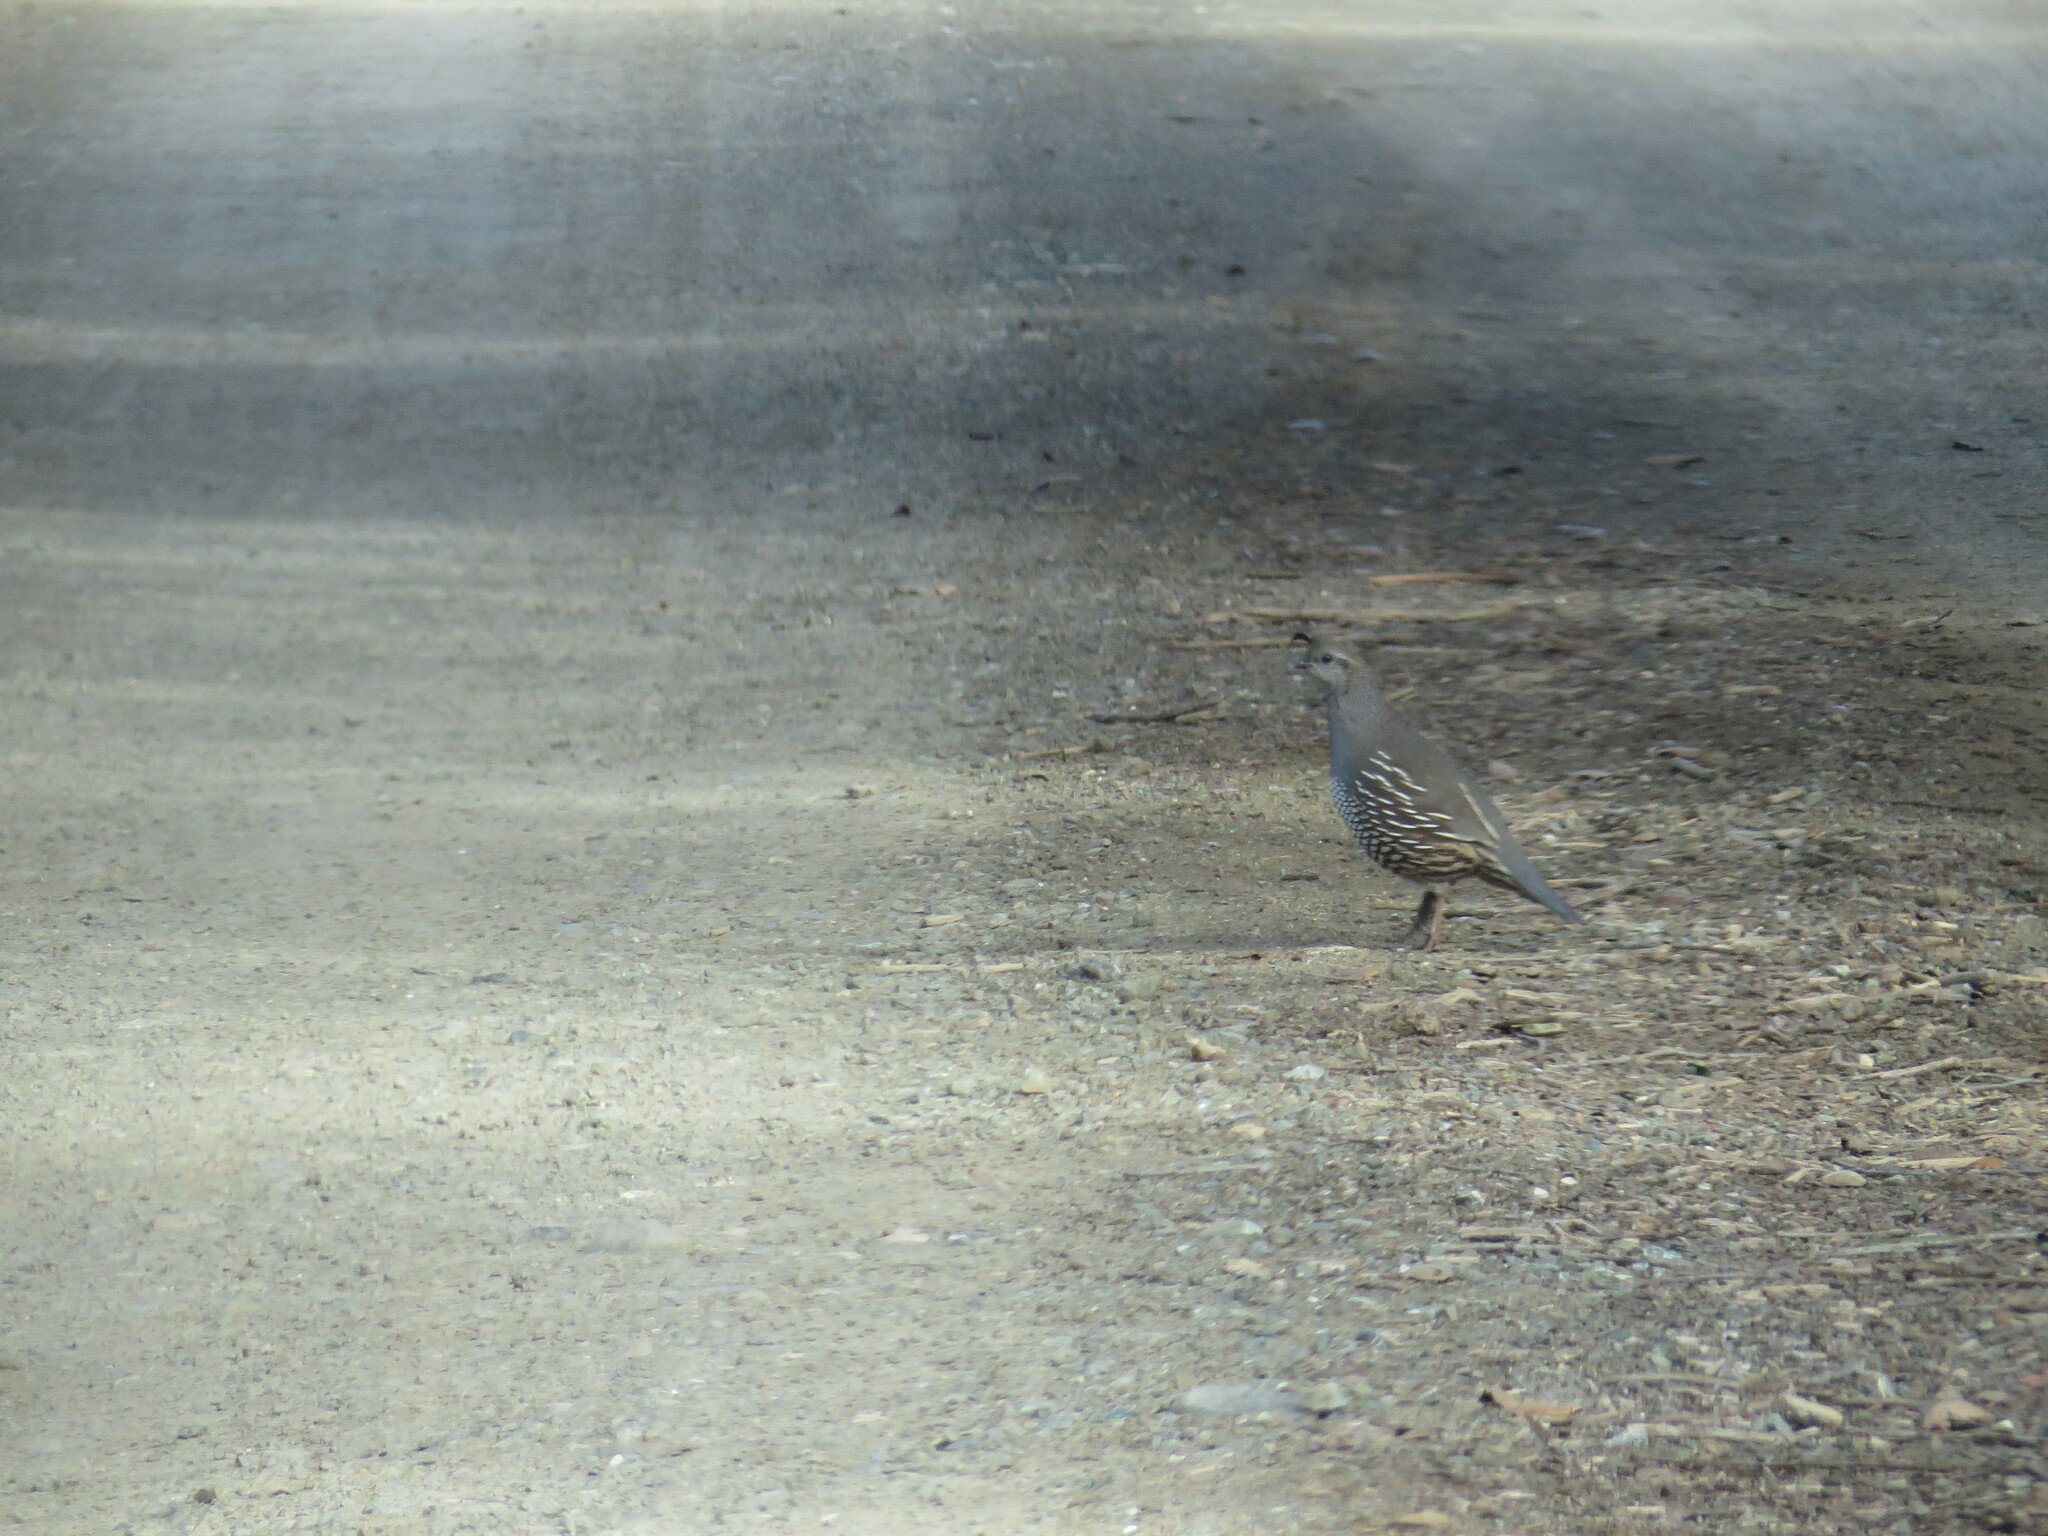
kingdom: Animalia
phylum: Chordata
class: Aves
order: Galliformes
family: Odontophoridae
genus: Callipepla
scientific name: Callipepla californica
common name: California quail
